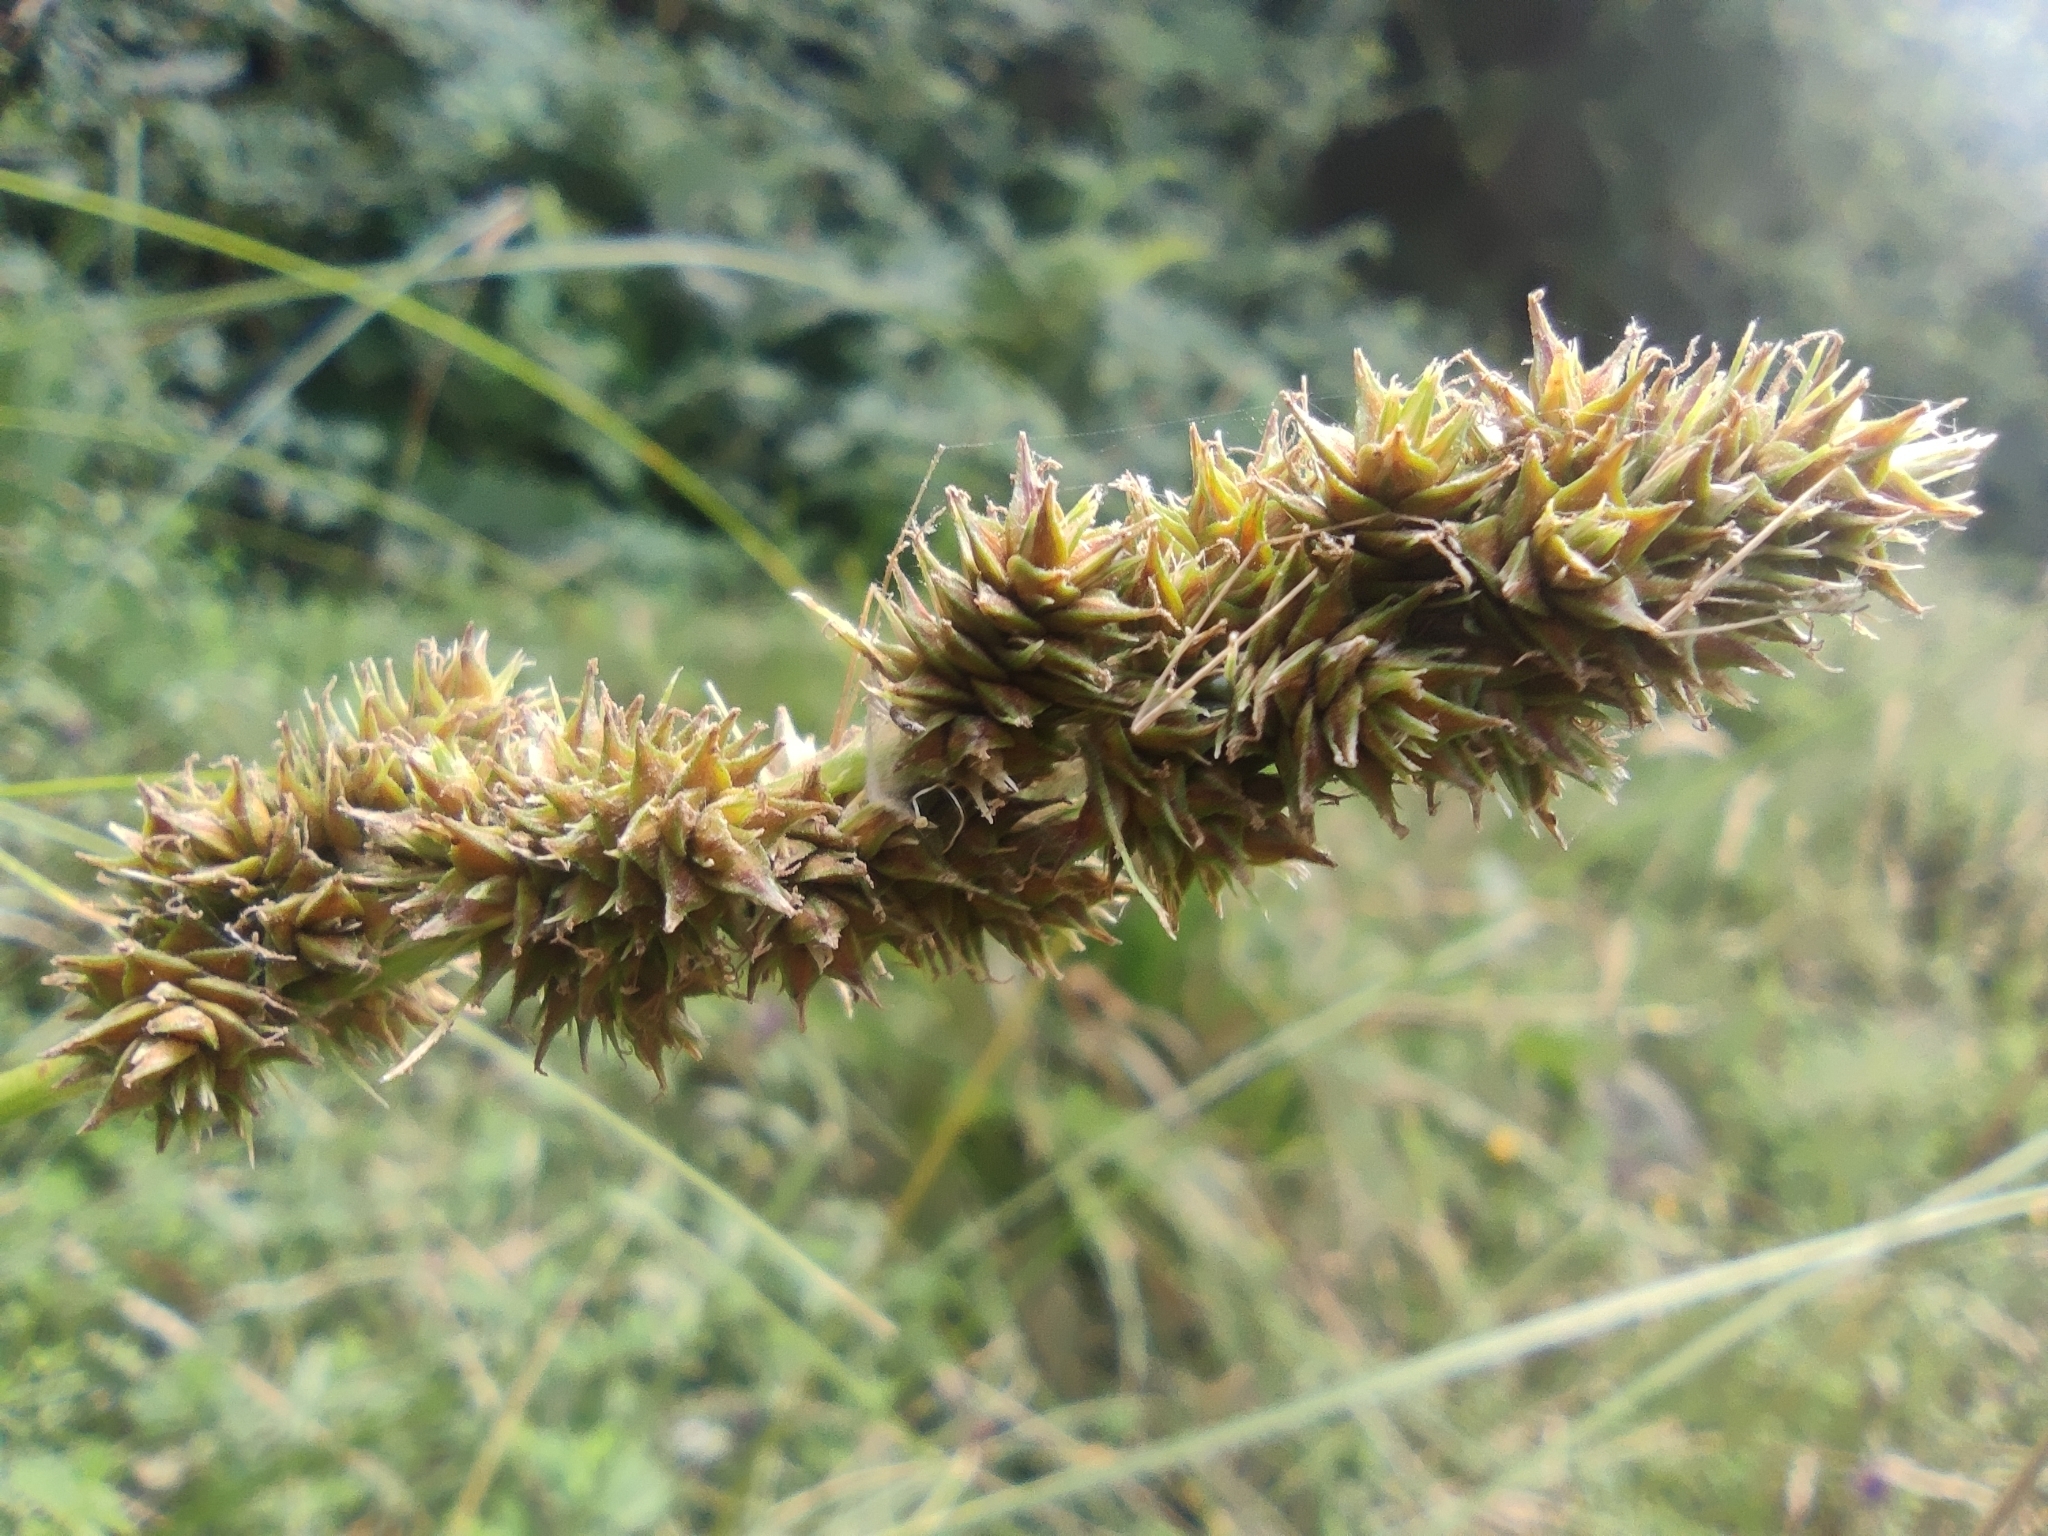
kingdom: Plantae
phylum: Tracheophyta
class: Liliopsida
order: Poales
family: Cyperaceae
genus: Carex
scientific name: Carex brongniartii
